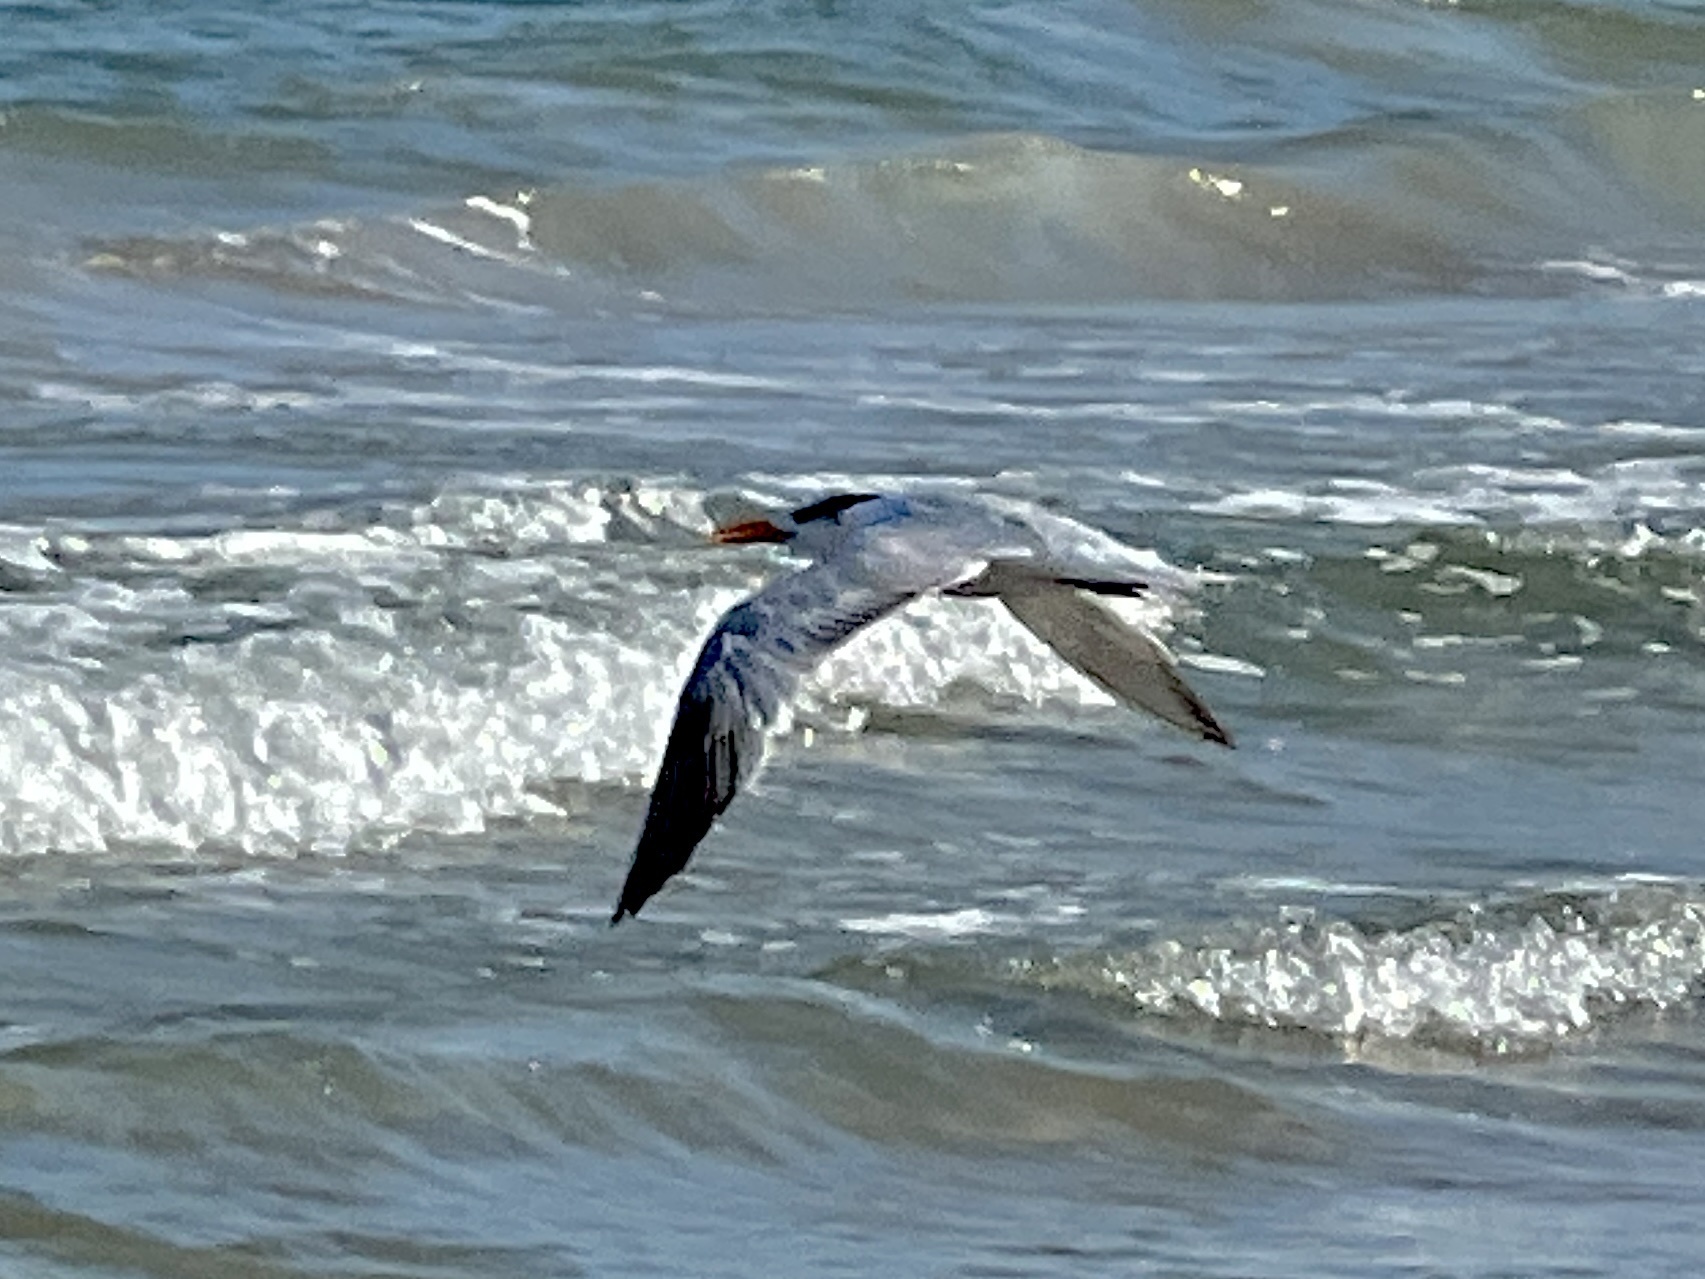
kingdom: Animalia
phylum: Chordata
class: Aves
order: Charadriiformes
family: Laridae
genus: Thalasseus
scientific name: Thalasseus maximus
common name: Royal tern
